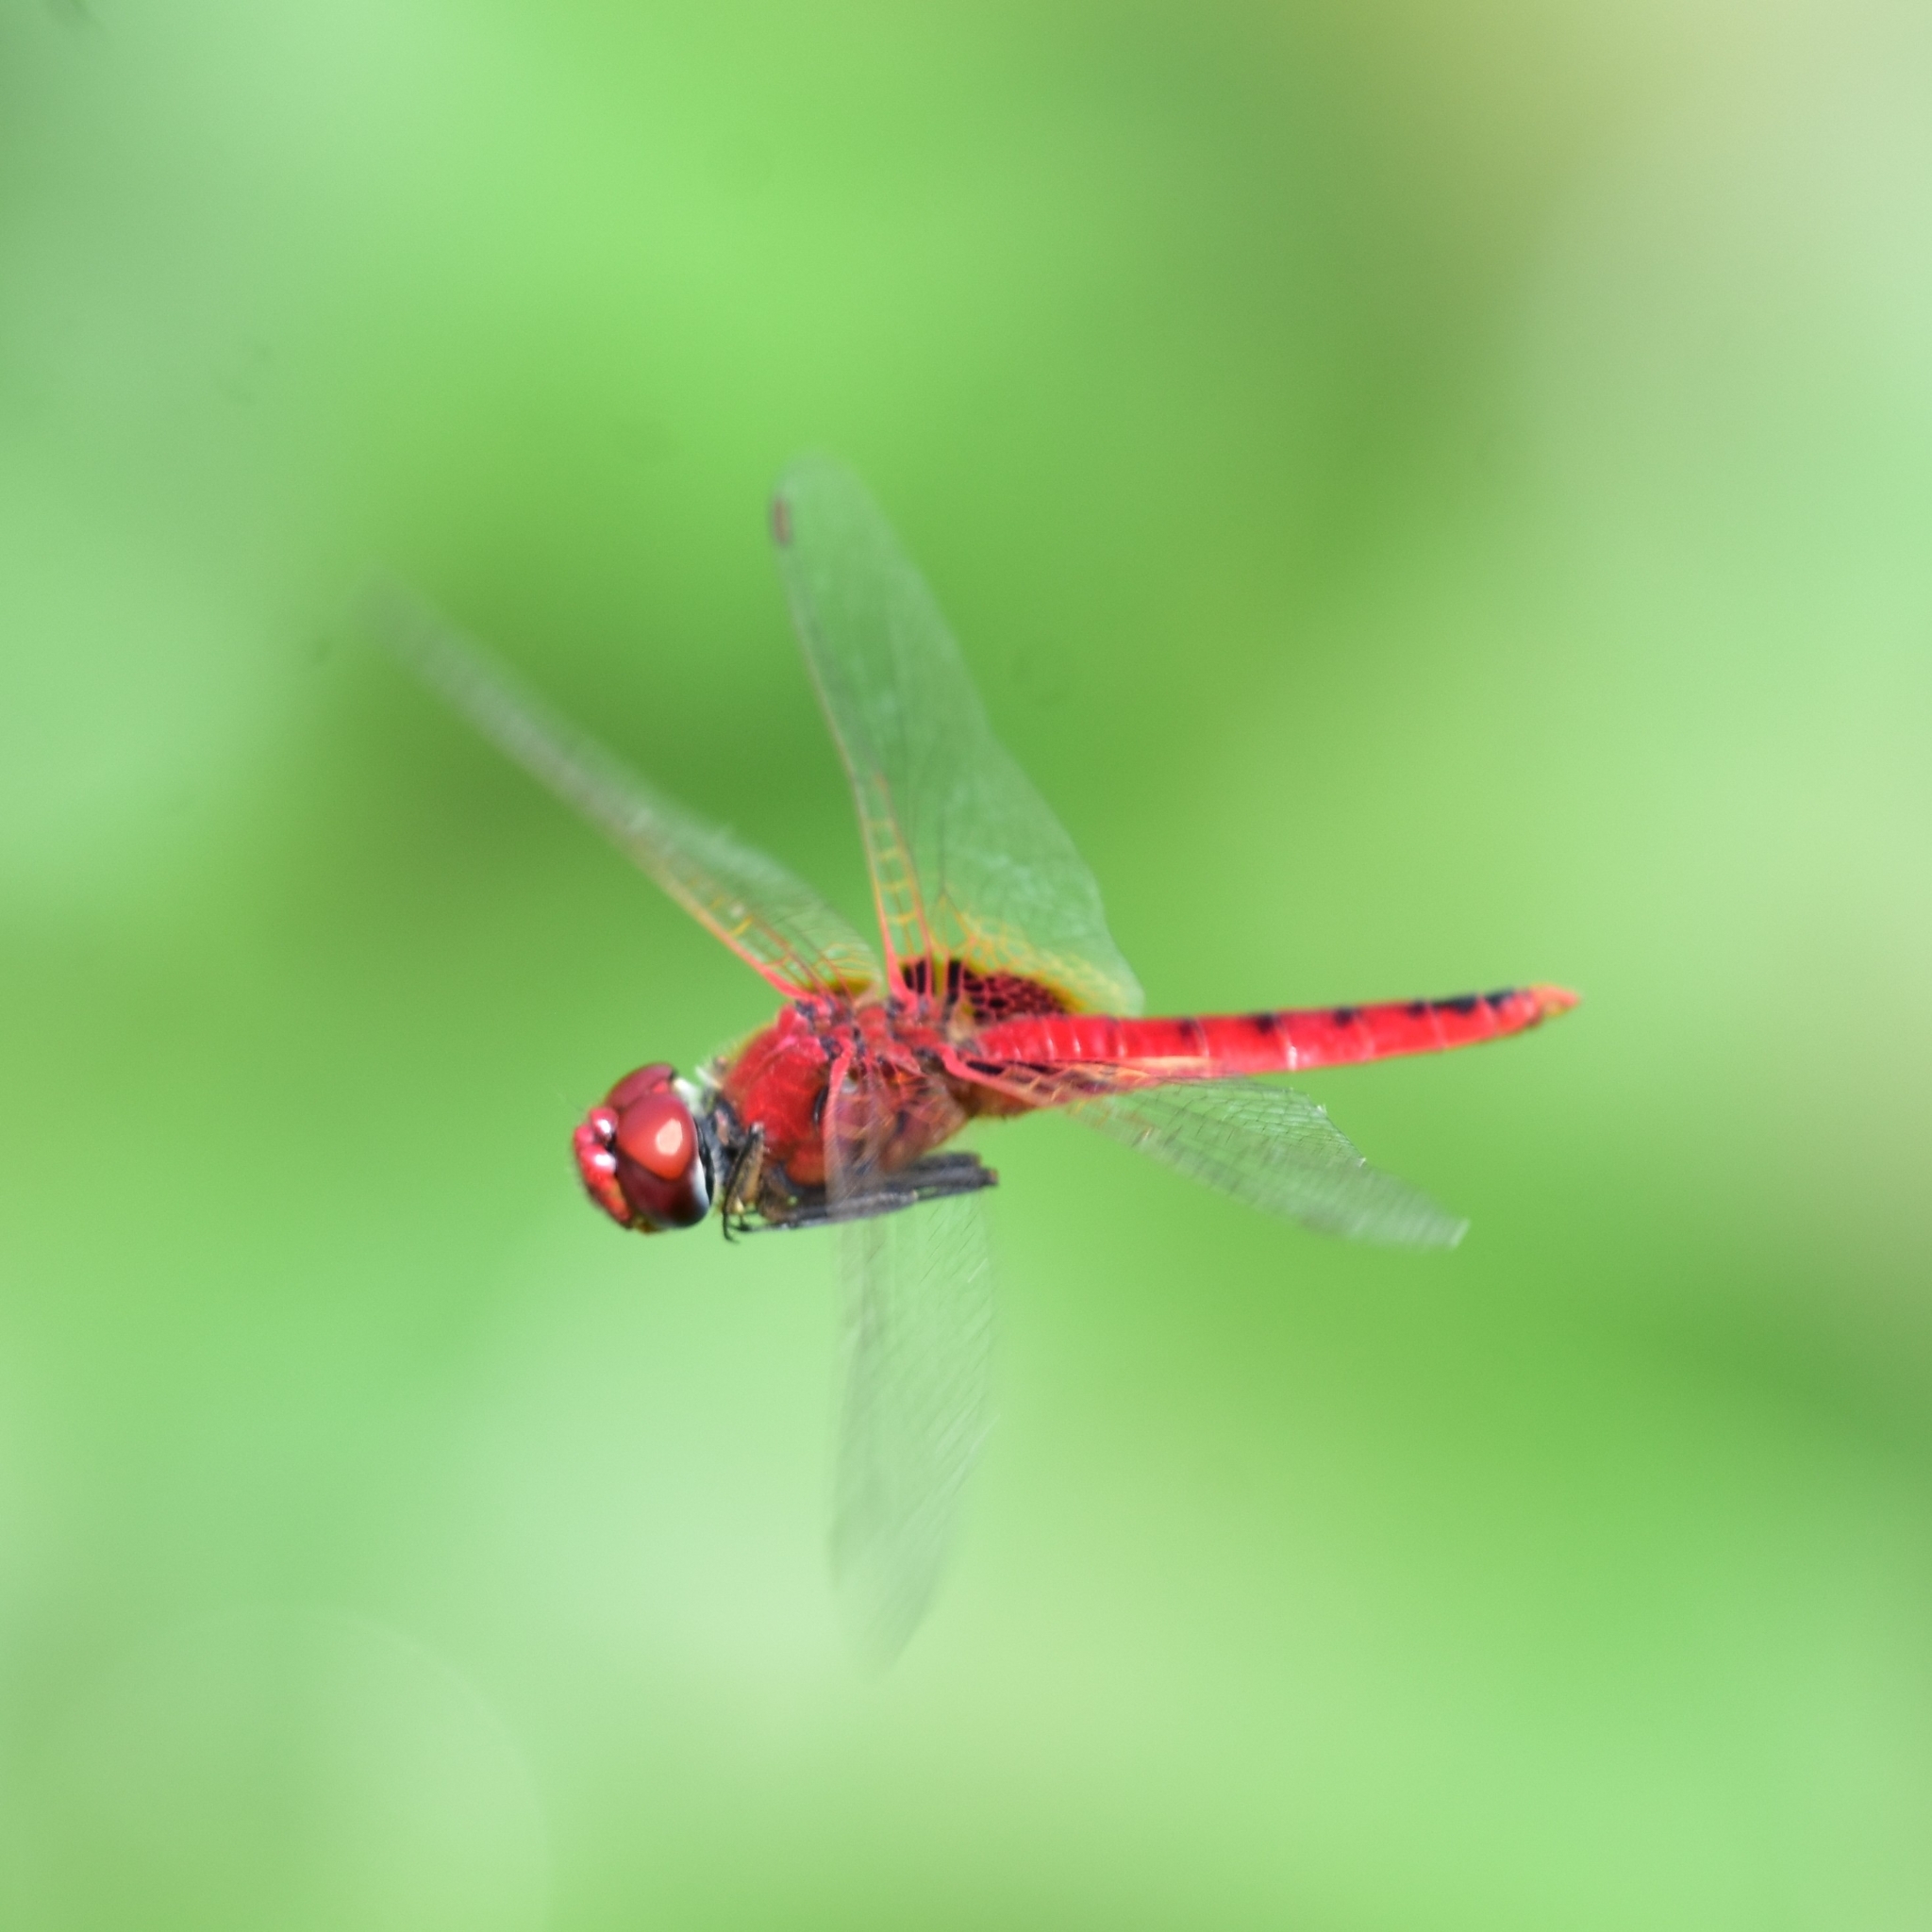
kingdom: Animalia
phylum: Arthropoda
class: Insecta
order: Odonata
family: Libellulidae
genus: Urothemis
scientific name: Urothemis signata
